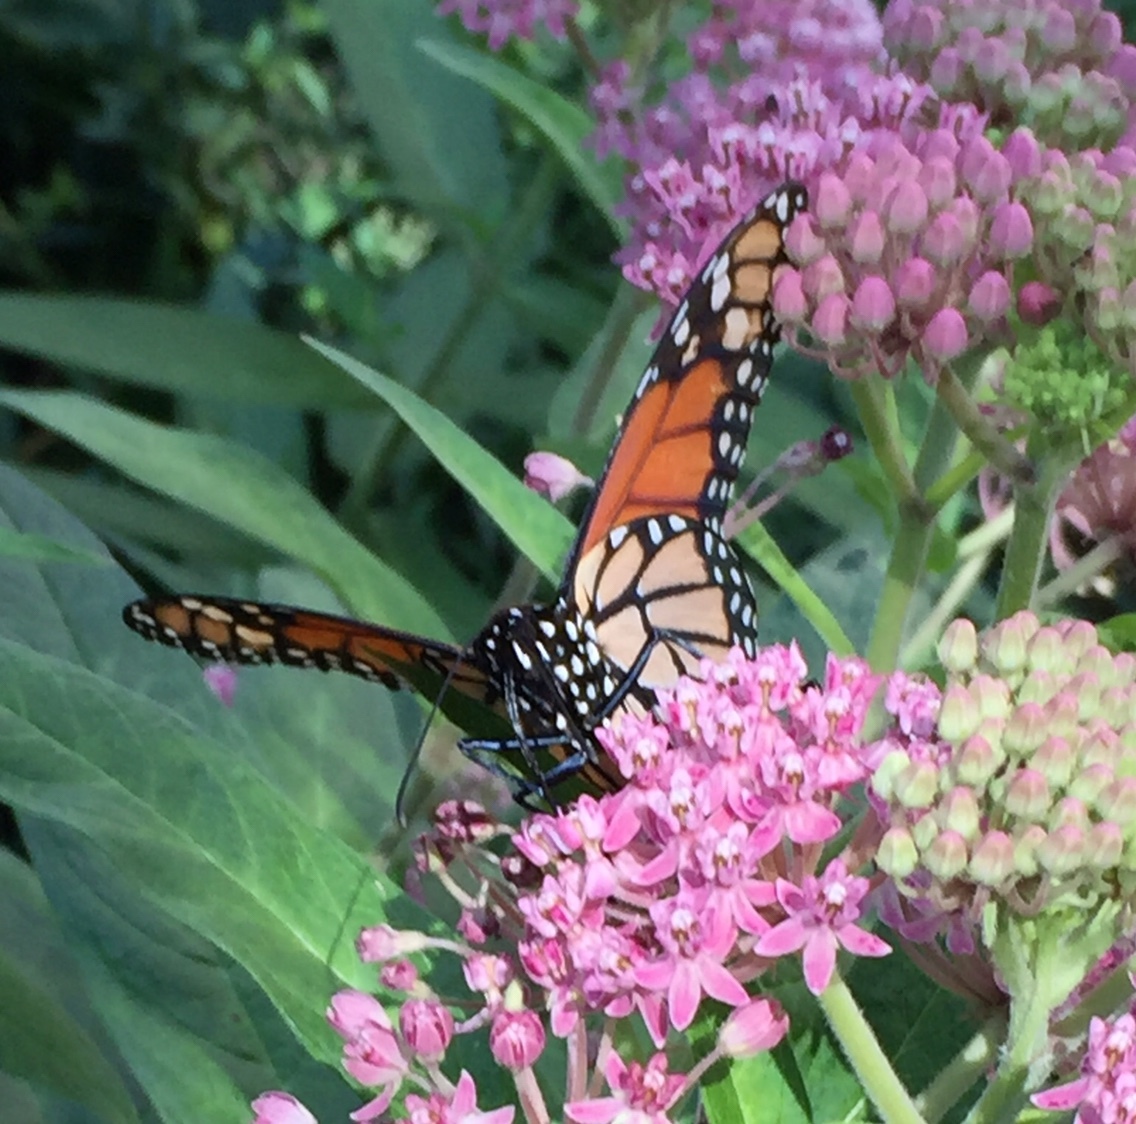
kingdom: Animalia
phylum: Arthropoda
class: Insecta
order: Lepidoptera
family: Nymphalidae
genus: Danaus
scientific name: Danaus plexippus
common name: Monarch
